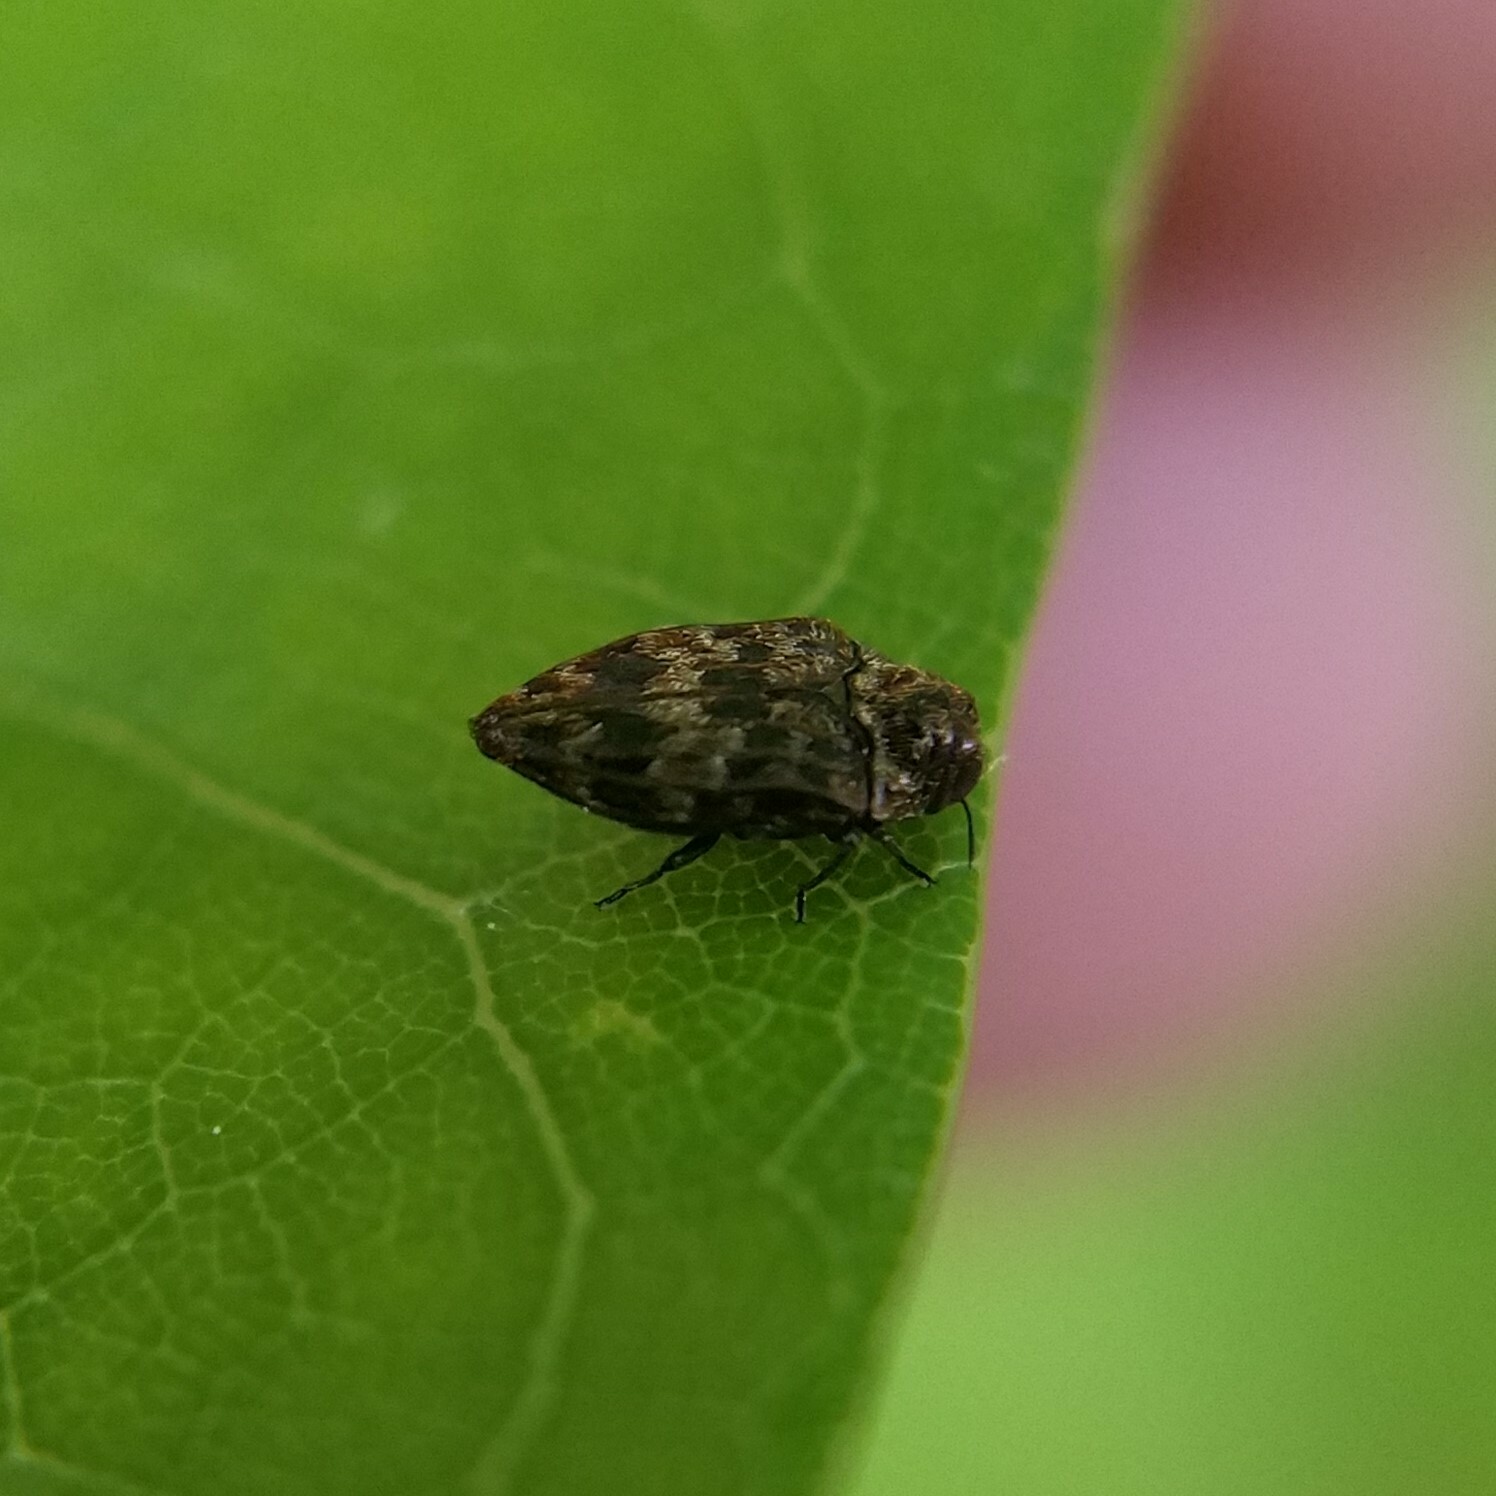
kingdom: Animalia
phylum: Arthropoda
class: Insecta
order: Coleoptera
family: Buprestidae
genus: Brachys
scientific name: Brachys aeruginosus
